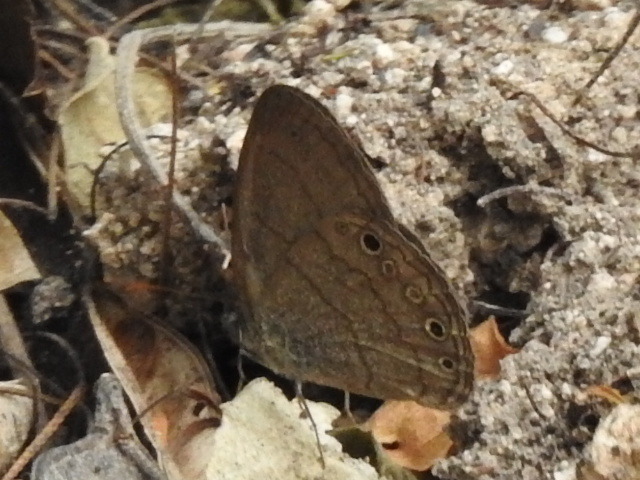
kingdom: Animalia
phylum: Arthropoda
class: Insecta
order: Lepidoptera
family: Nymphalidae
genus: Hermeuptychia
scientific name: Hermeuptychia hermybius
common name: South texas satyr
